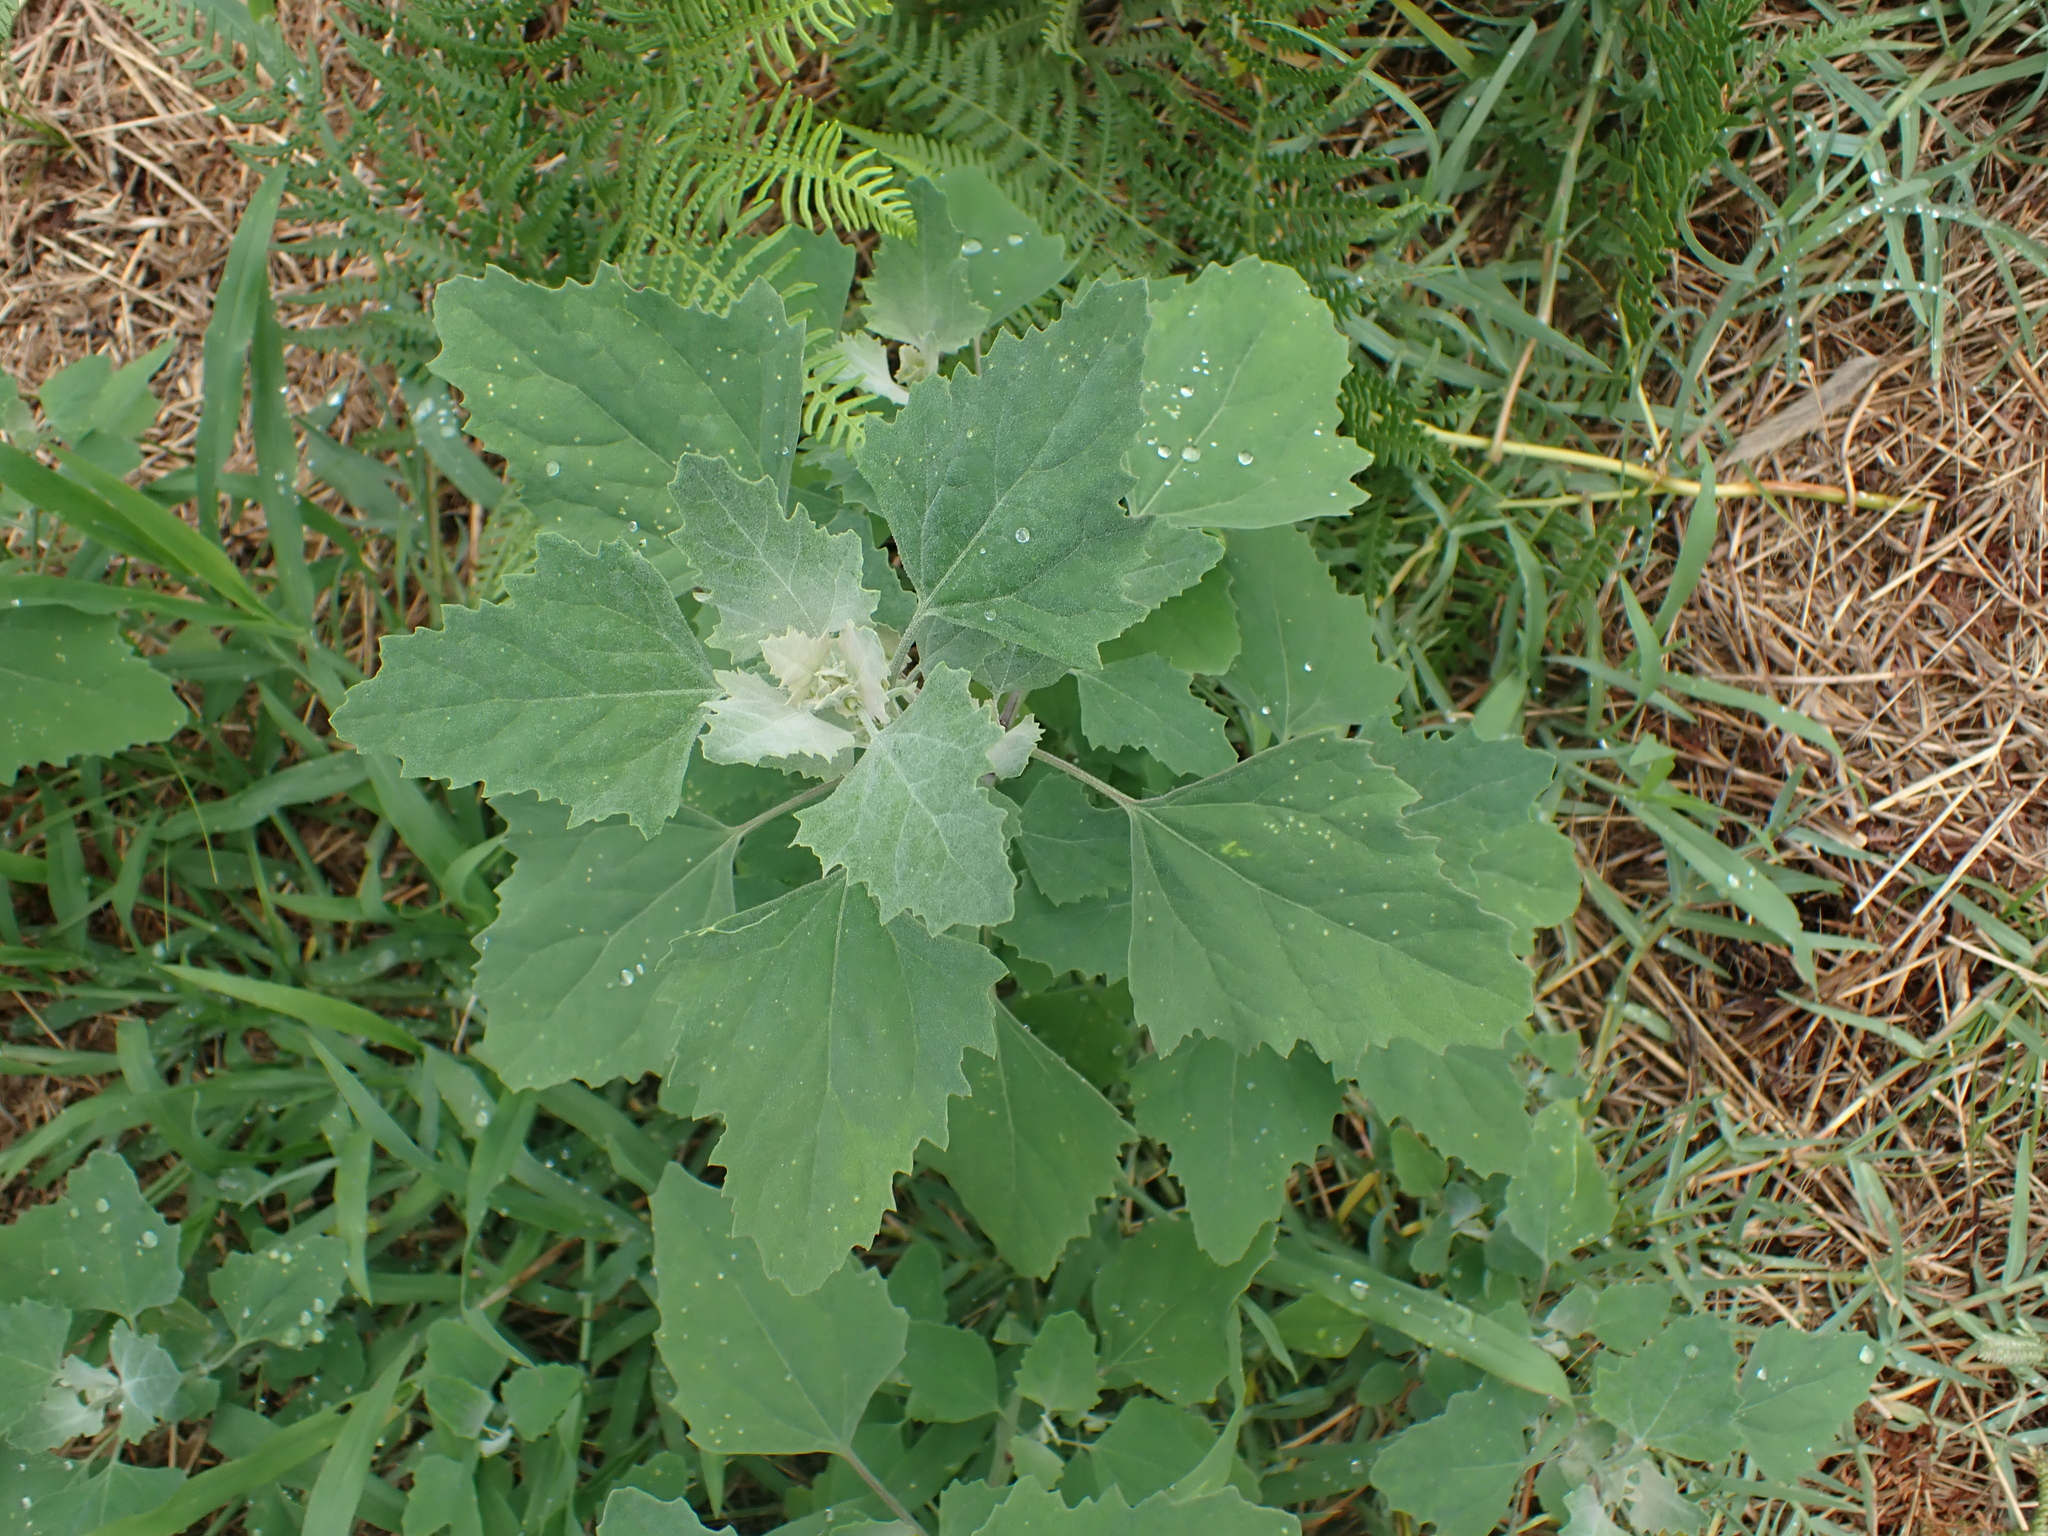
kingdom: Plantae
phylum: Tracheophyta
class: Magnoliopsida
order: Caryophyllales
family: Amaranthaceae
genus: Chenopodium
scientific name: Chenopodium album
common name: Fat-hen
